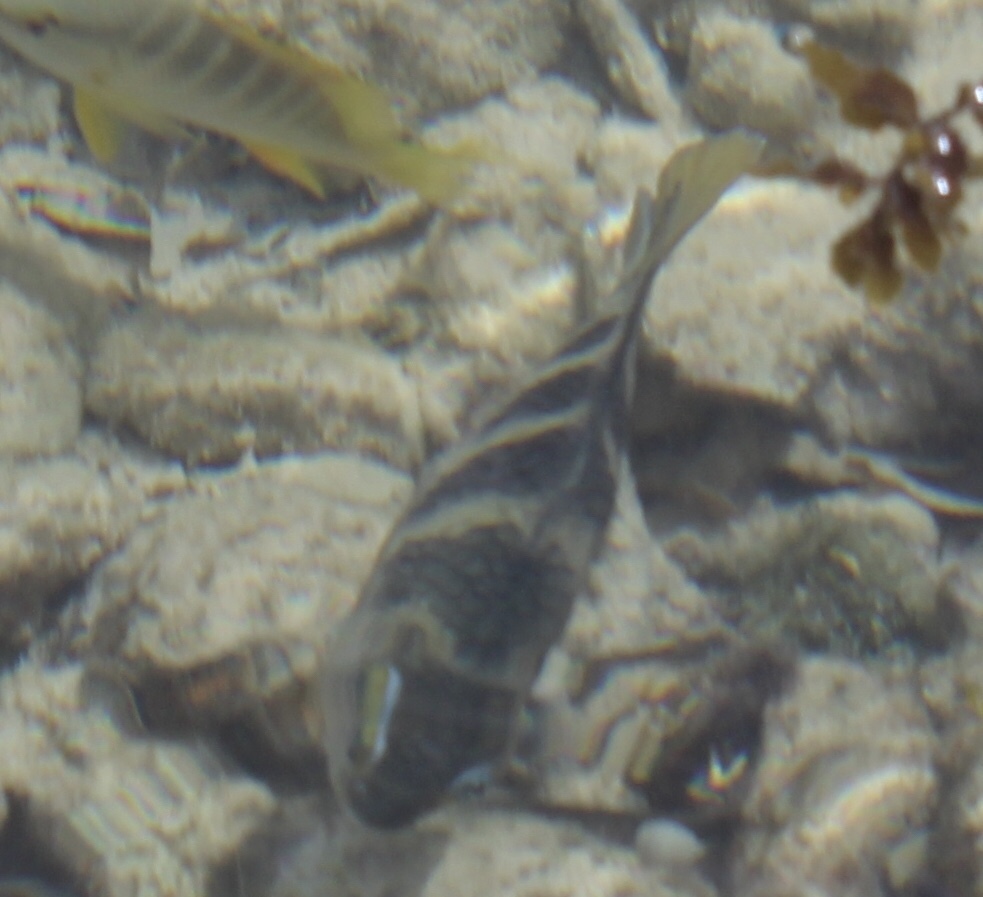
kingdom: Animalia
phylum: Chordata
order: Perciformes
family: Pomacentridae
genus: Abudefduf
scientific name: Abudefduf taurus
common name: Night sergeant
